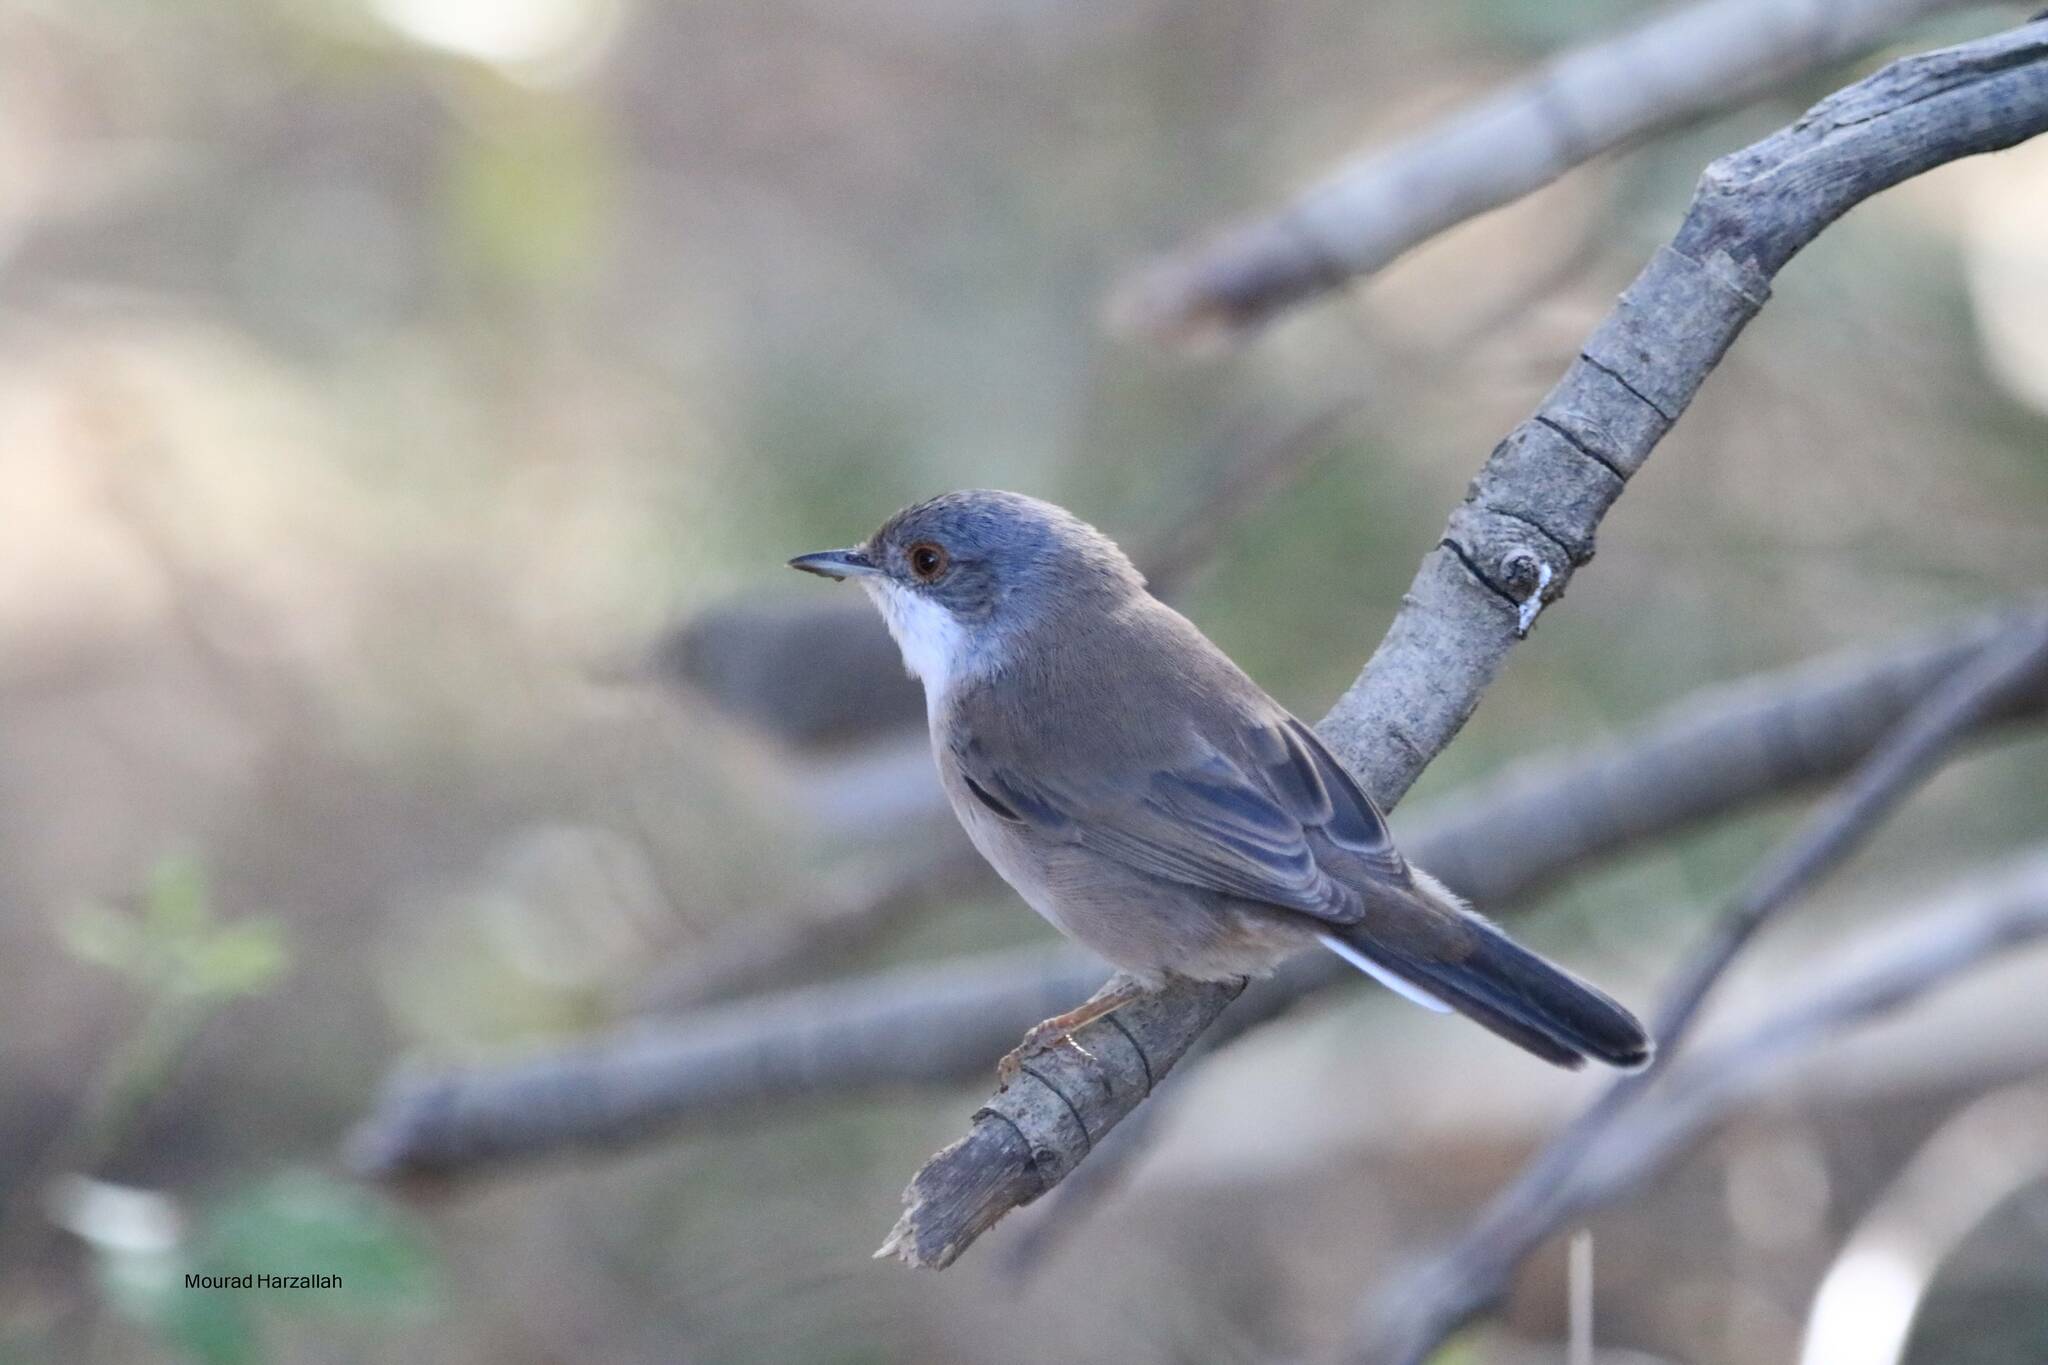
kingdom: Animalia
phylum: Chordata
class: Aves
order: Passeriformes
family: Sylviidae
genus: Curruca
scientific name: Curruca melanocephala
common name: Sardinian warbler
